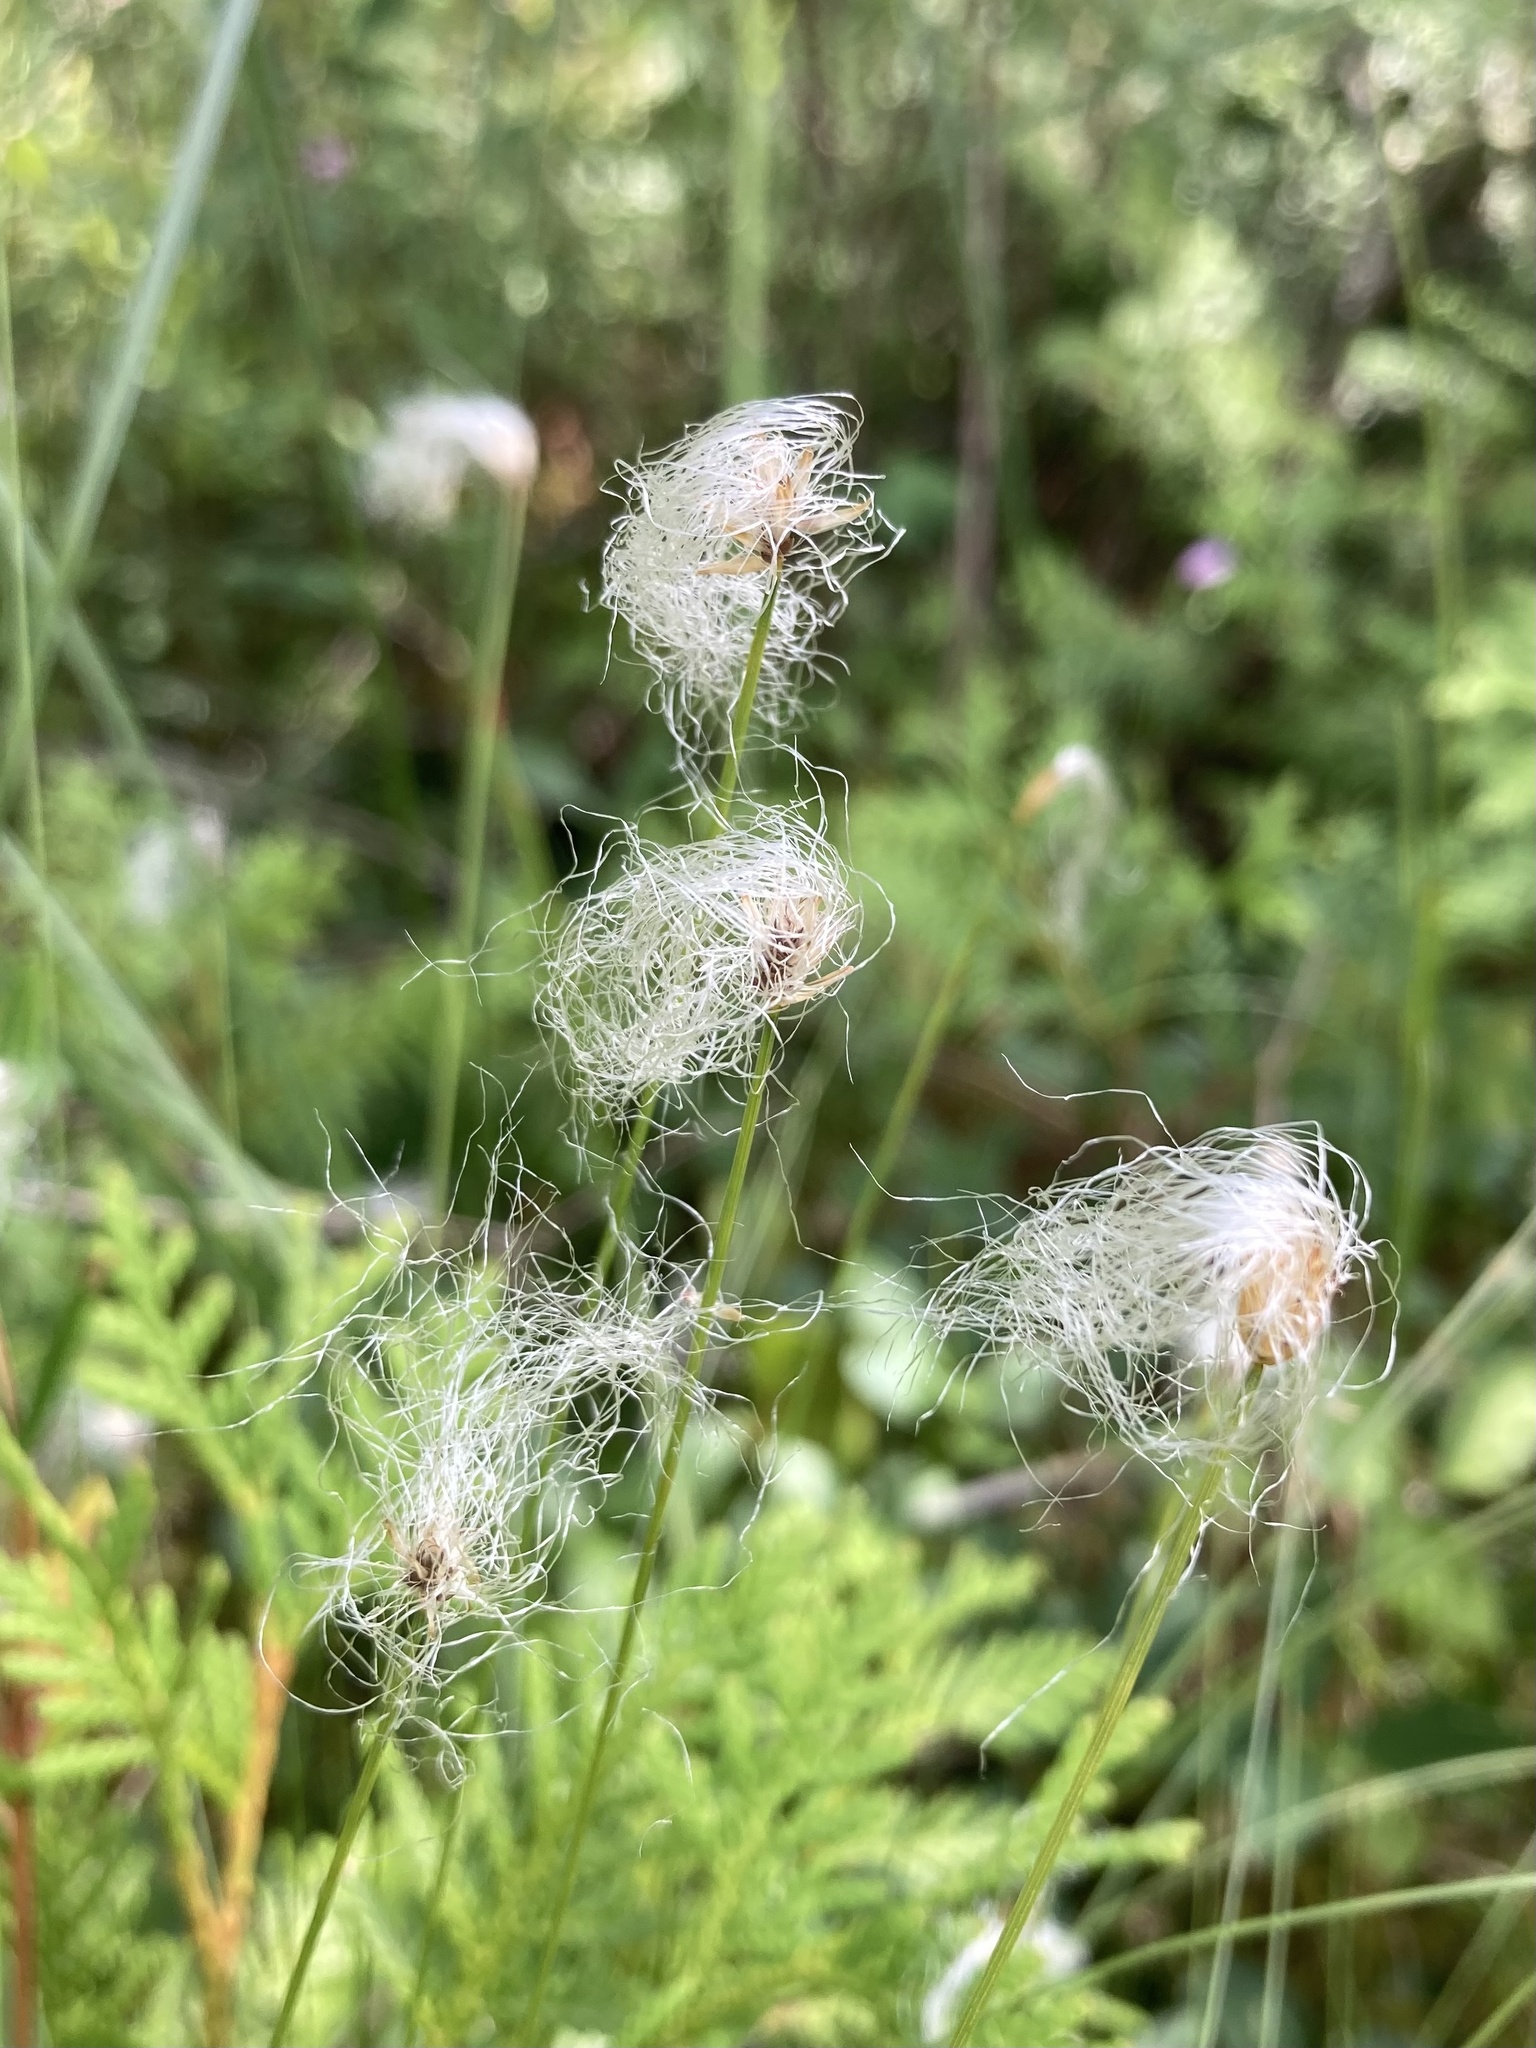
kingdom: Plantae
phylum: Tracheophyta
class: Liliopsida
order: Poales
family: Cyperaceae
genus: Trichophorum
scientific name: Trichophorum alpinum
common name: Alpine bulrush
